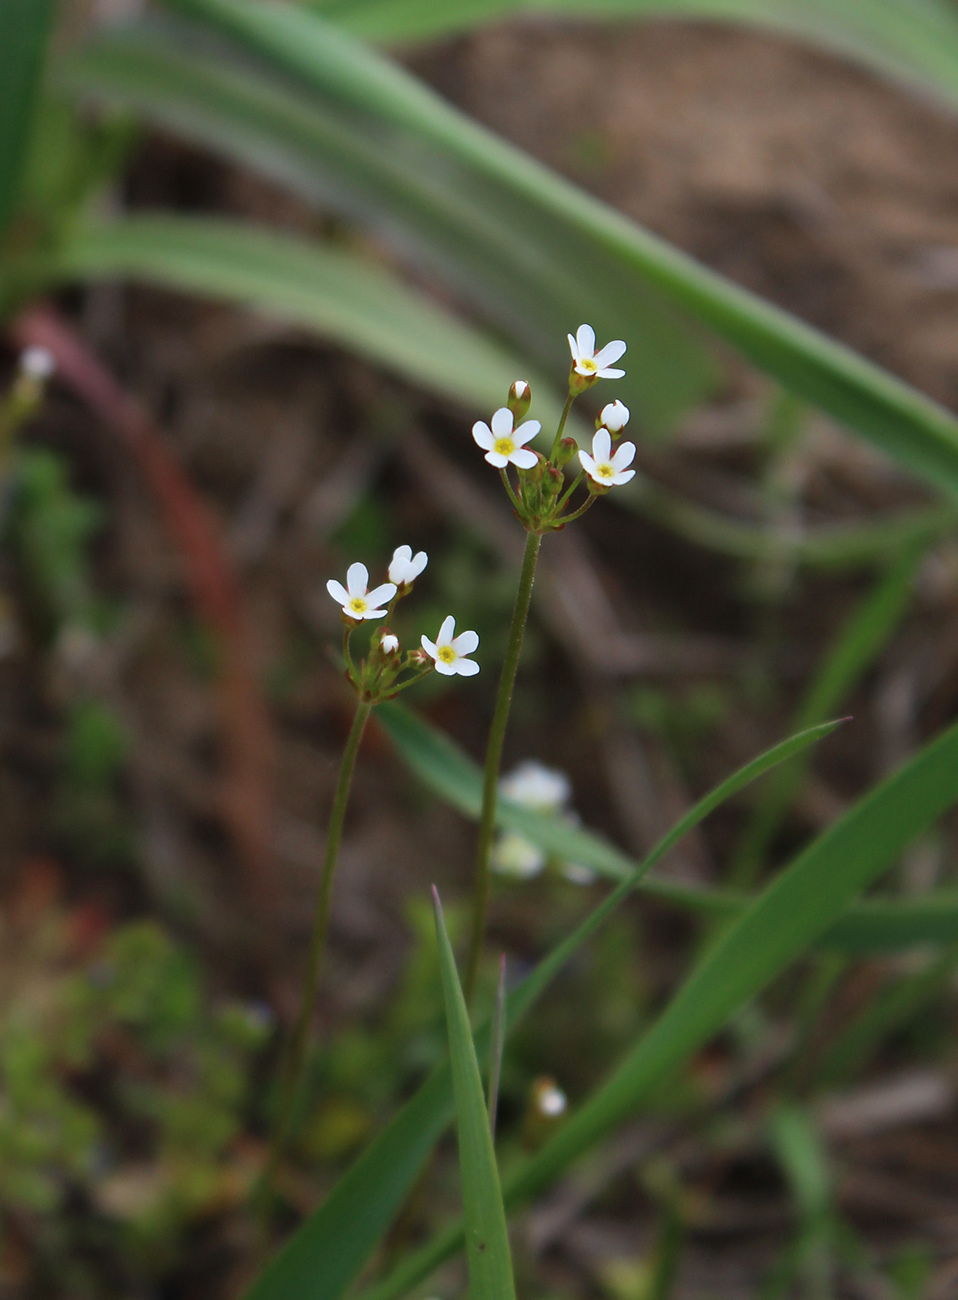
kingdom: Plantae
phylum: Tracheophyta
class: Magnoliopsida
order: Ericales
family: Primulaceae
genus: Androsace
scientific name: Androsace septentrionalis
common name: Hairy northern fairy-candelabra
